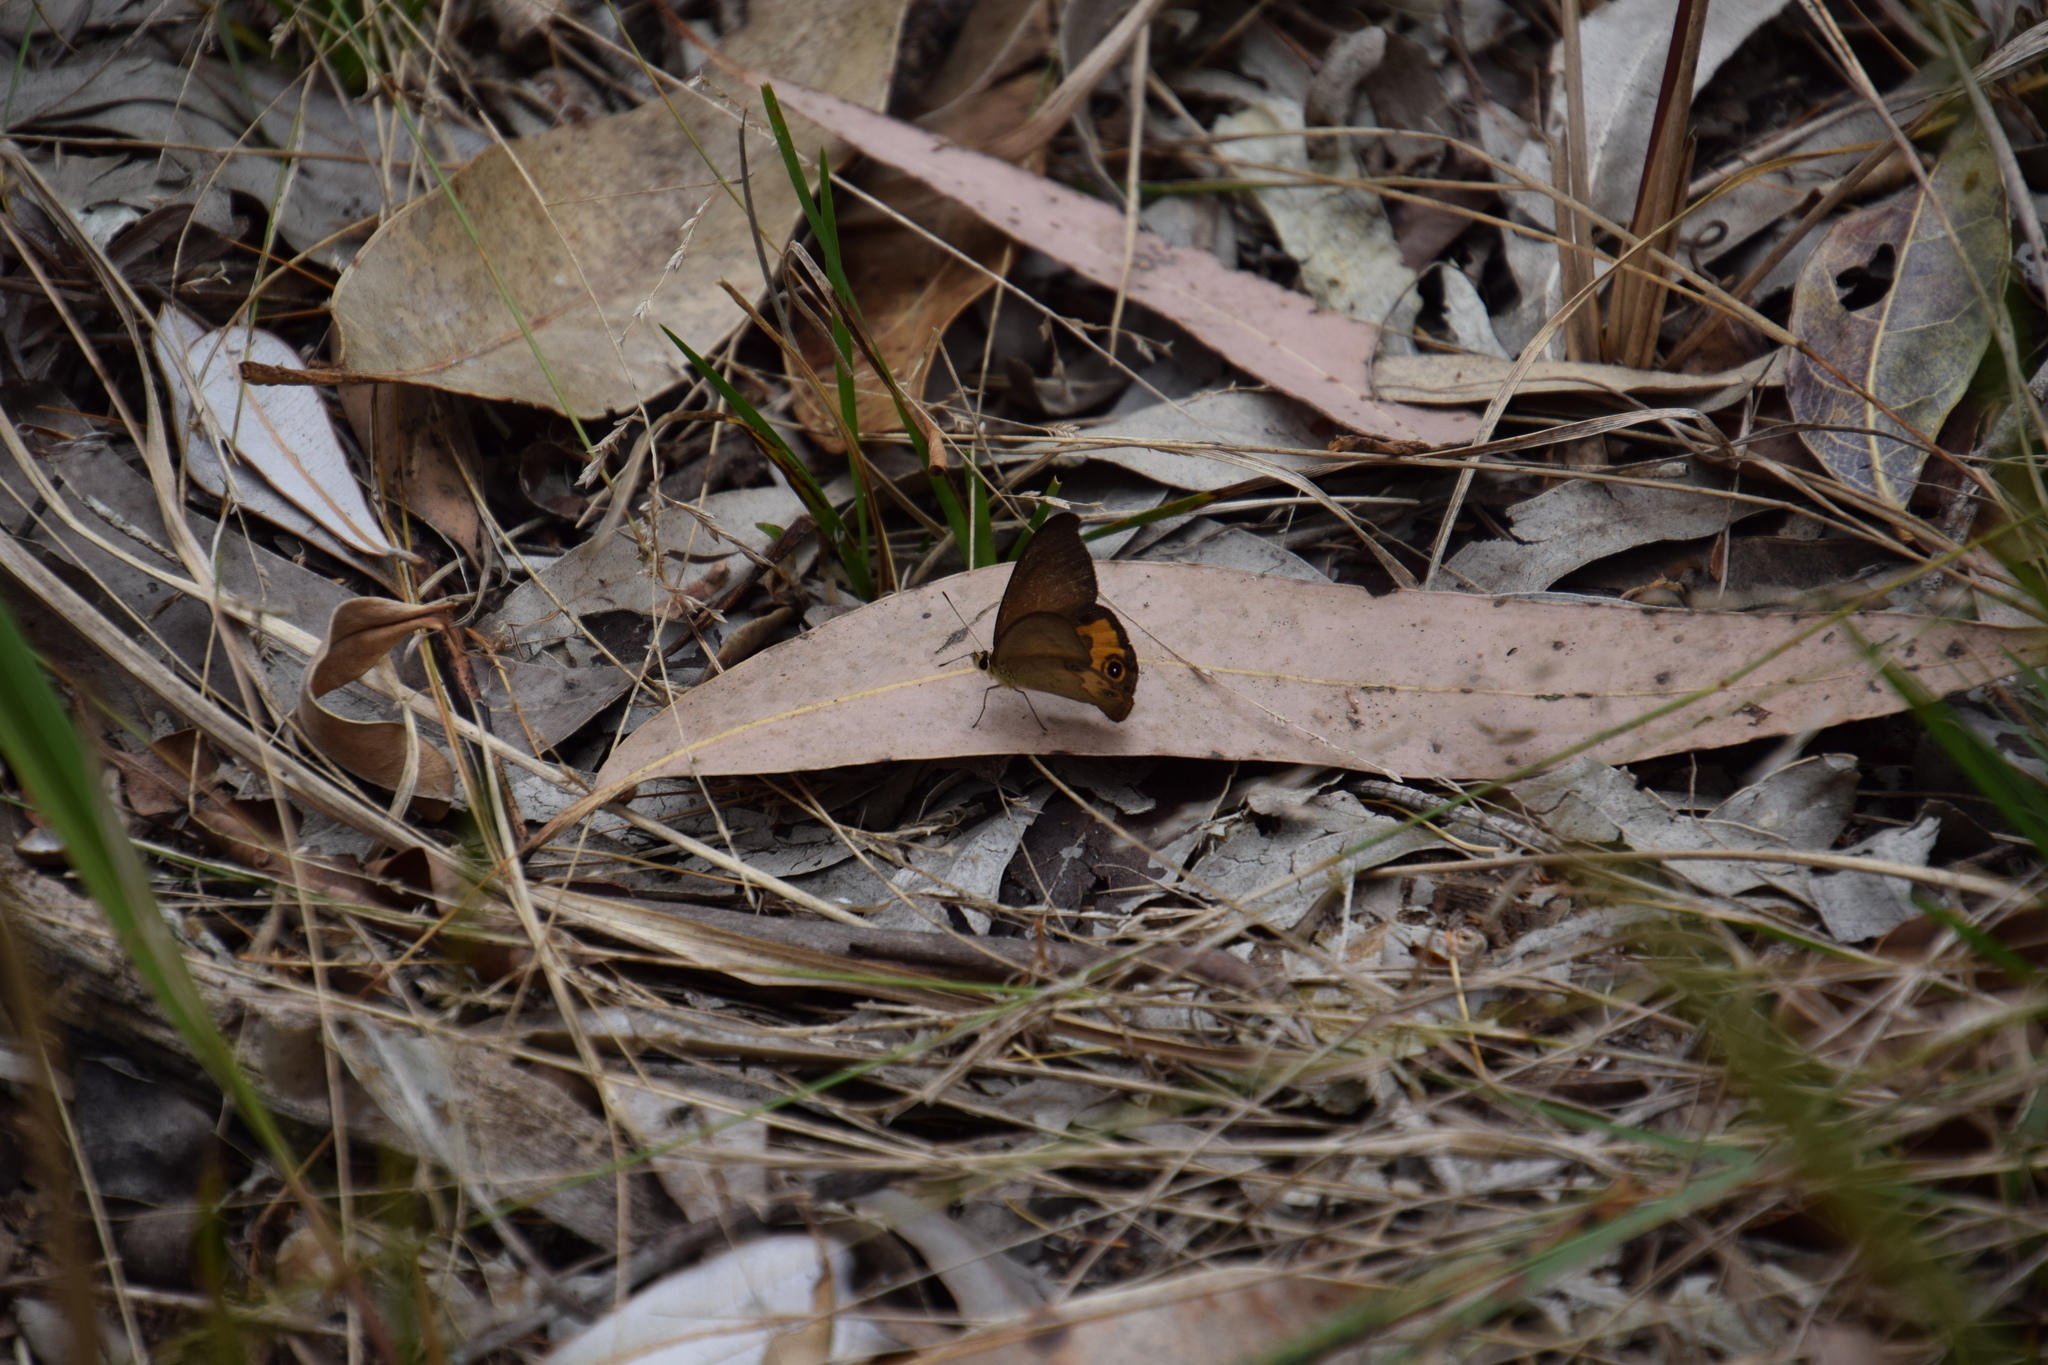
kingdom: Animalia
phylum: Arthropoda
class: Insecta
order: Lepidoptera
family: Nymphalidae
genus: Hypocysta
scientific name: Hypocysta metirius
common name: Brown ringlet
